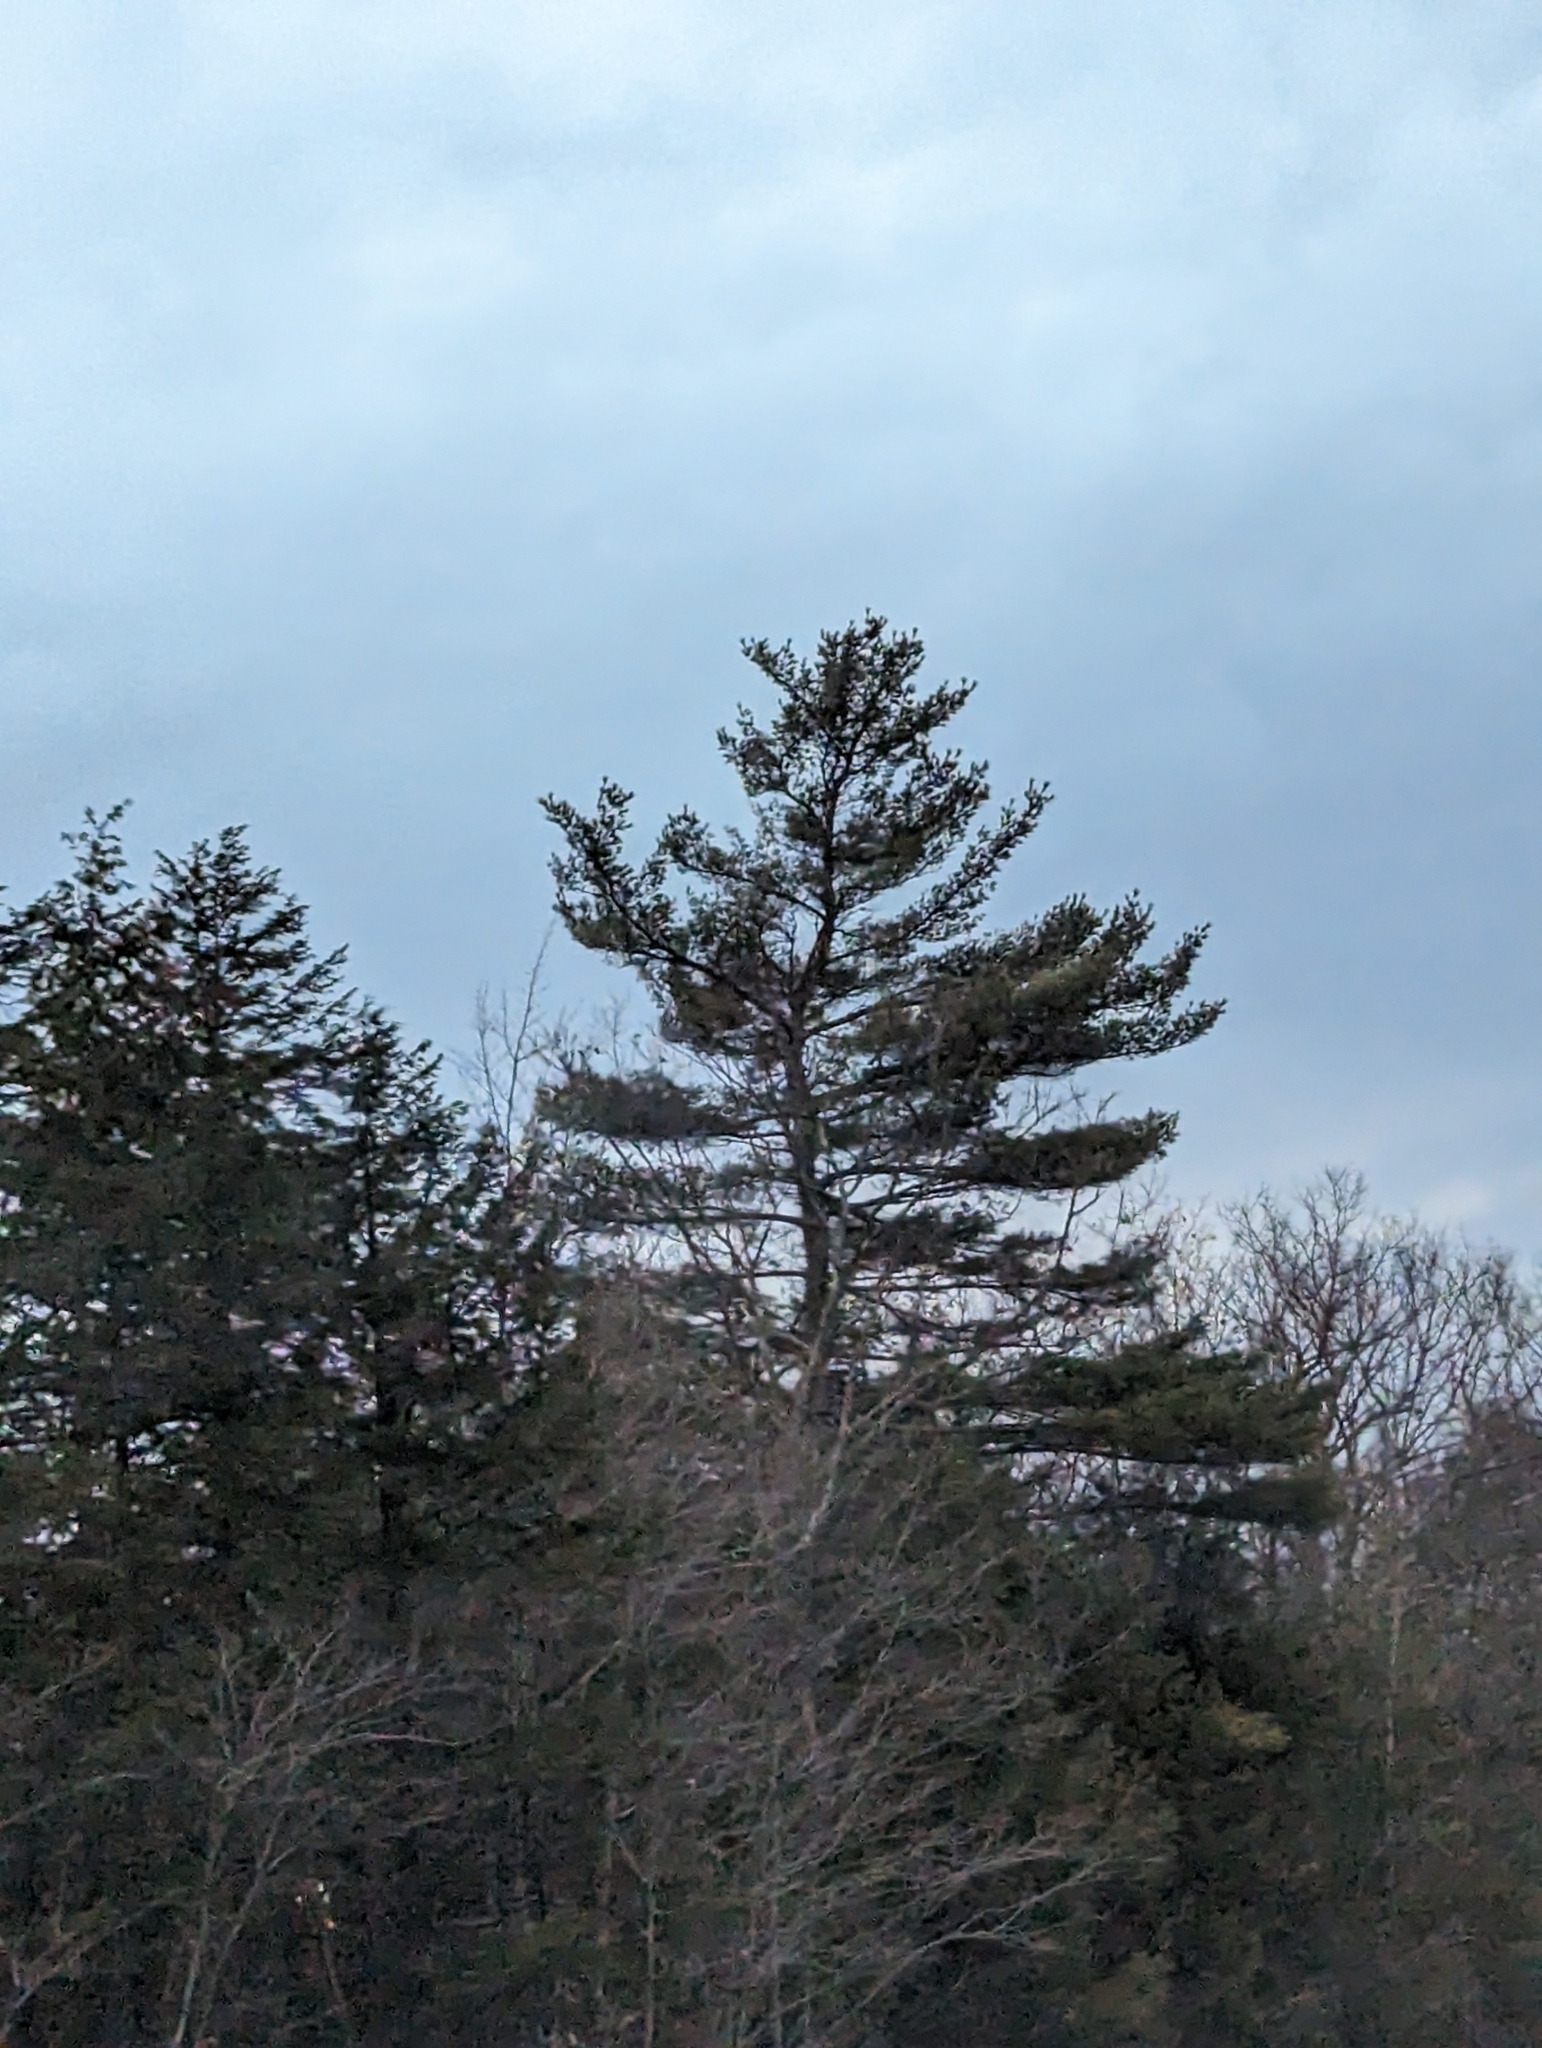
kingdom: Plantae
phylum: Tracheophyta
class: Pinopsida
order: Pinales
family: Pinaceae
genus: Pinus
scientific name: Pinus strobus
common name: Weymouth pine
